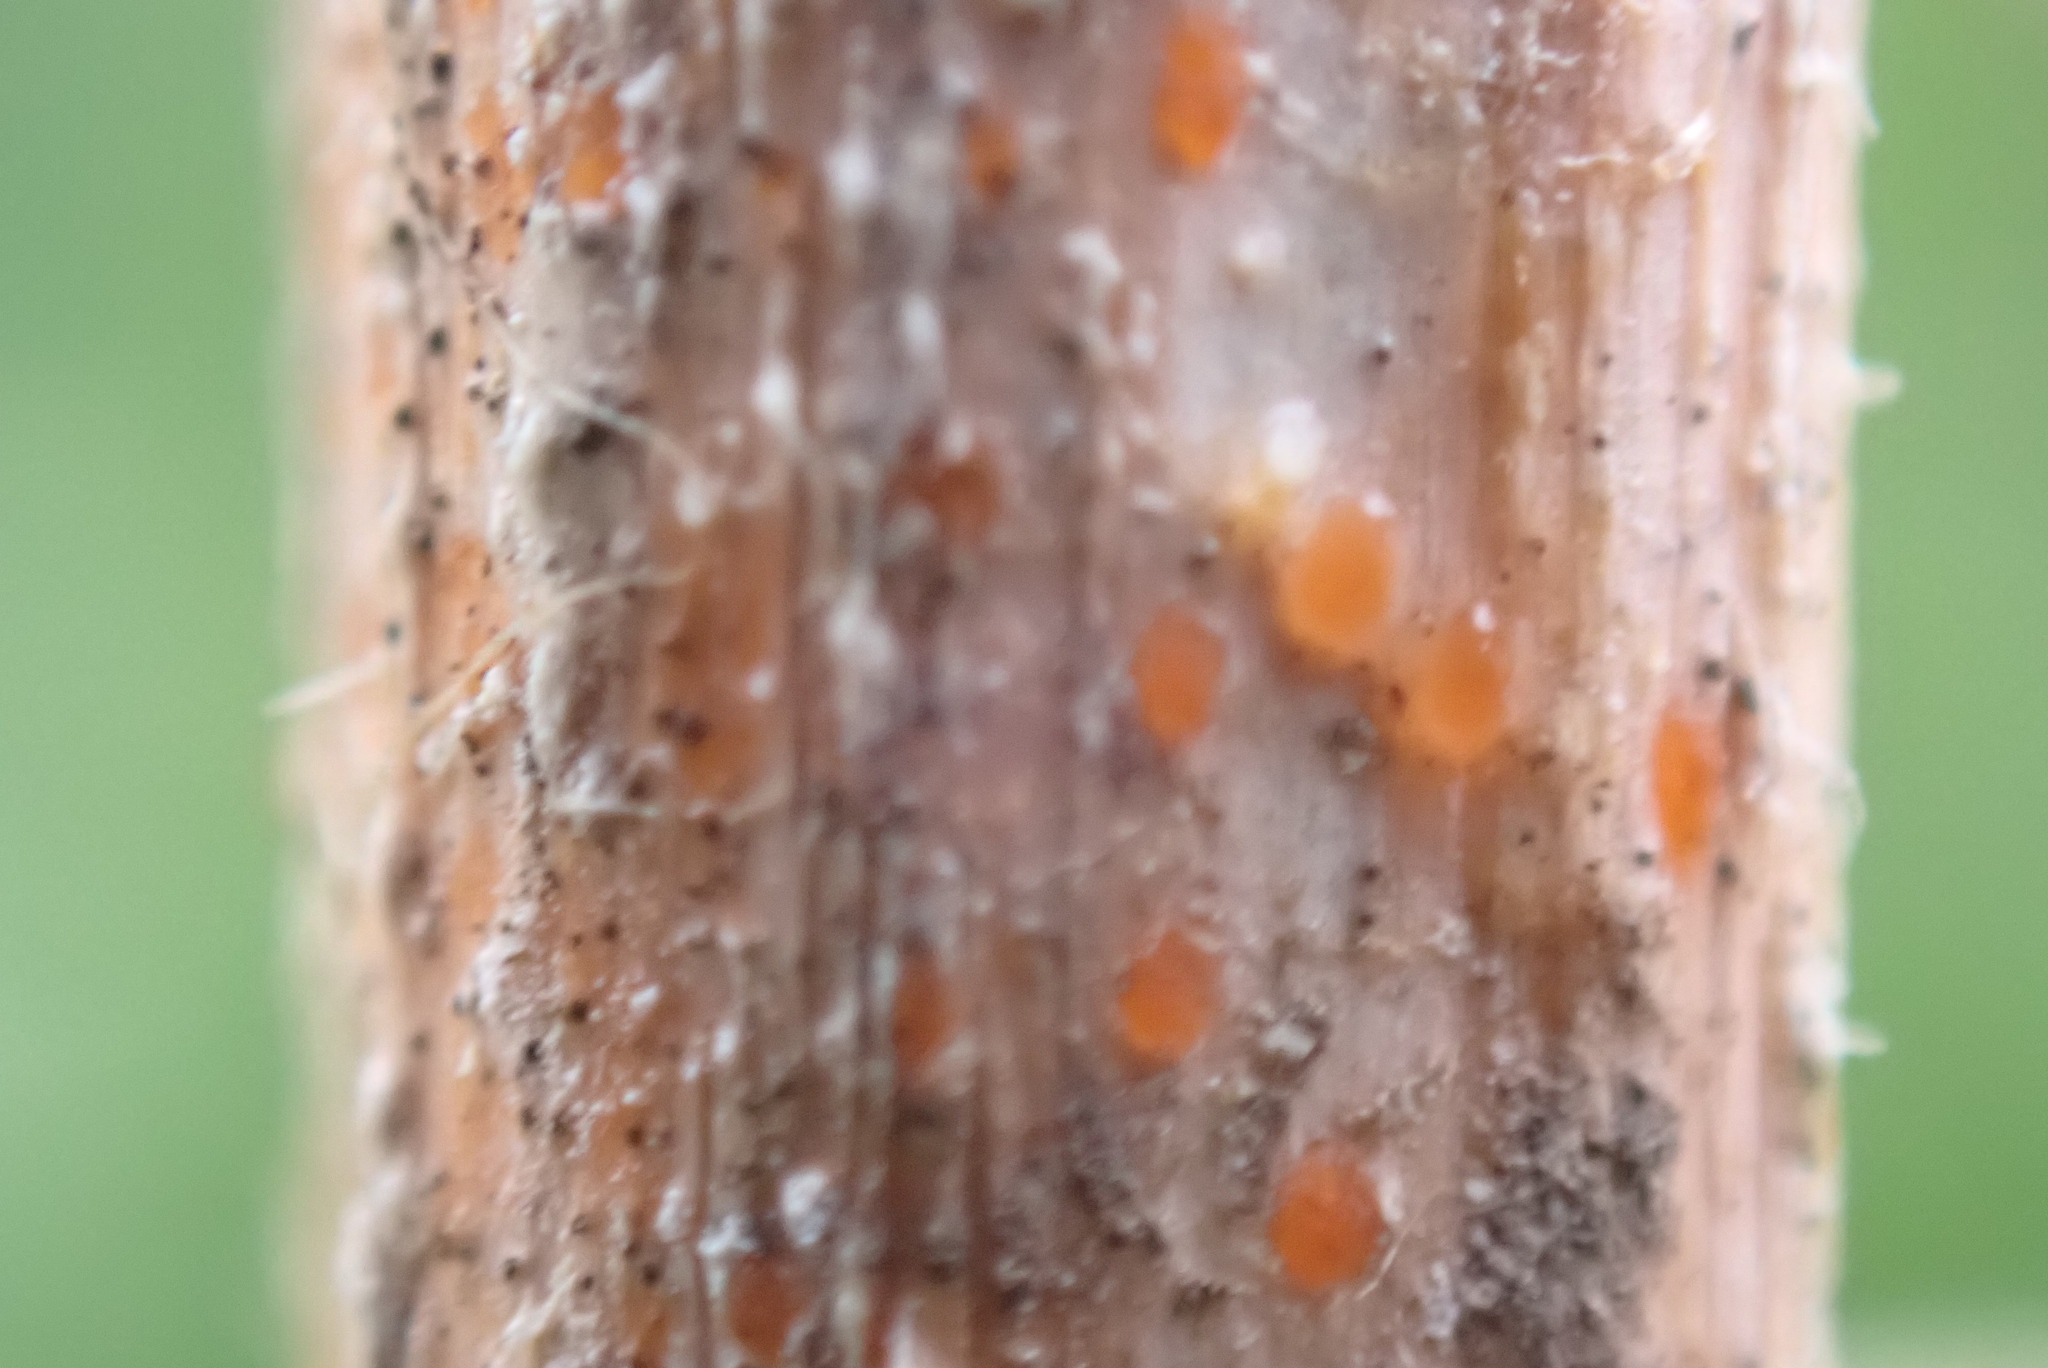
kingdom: Fungi
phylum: Ascomycota
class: Leotiomycetes
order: Helotiales
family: Calloriaceae
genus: Calloria
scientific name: Calloria urticae
